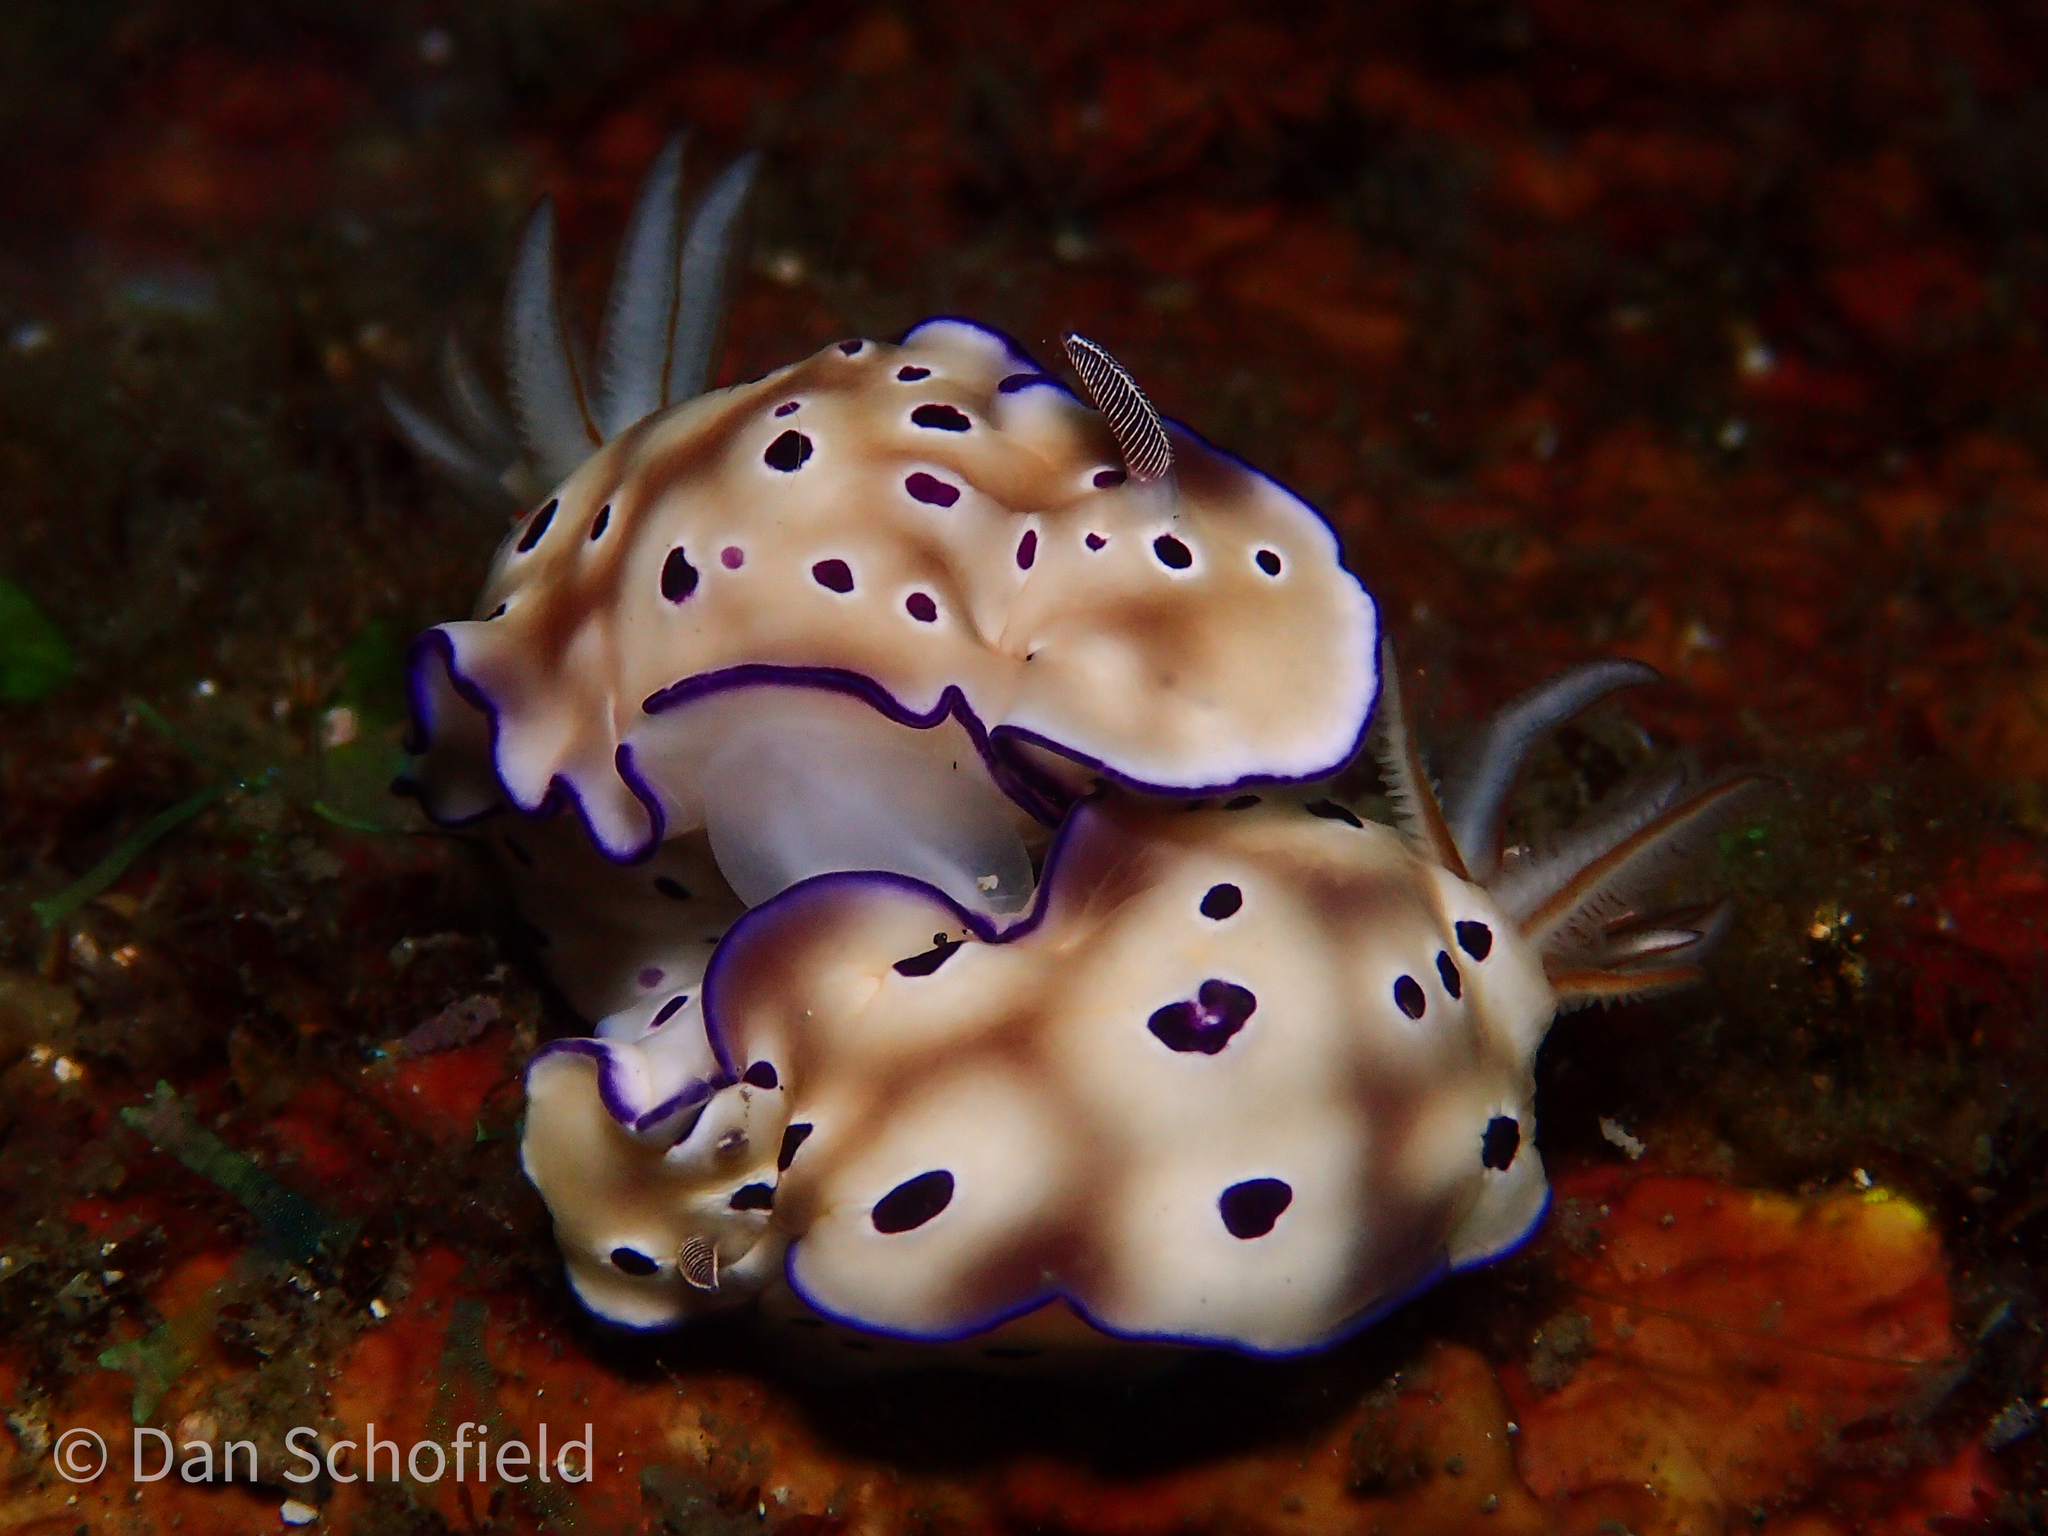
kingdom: Animalia
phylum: Mollusca
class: Gastropoda
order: Nudibranchia
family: Chromodorididae
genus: Hypselodoris
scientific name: Hypselodoris tryoni
